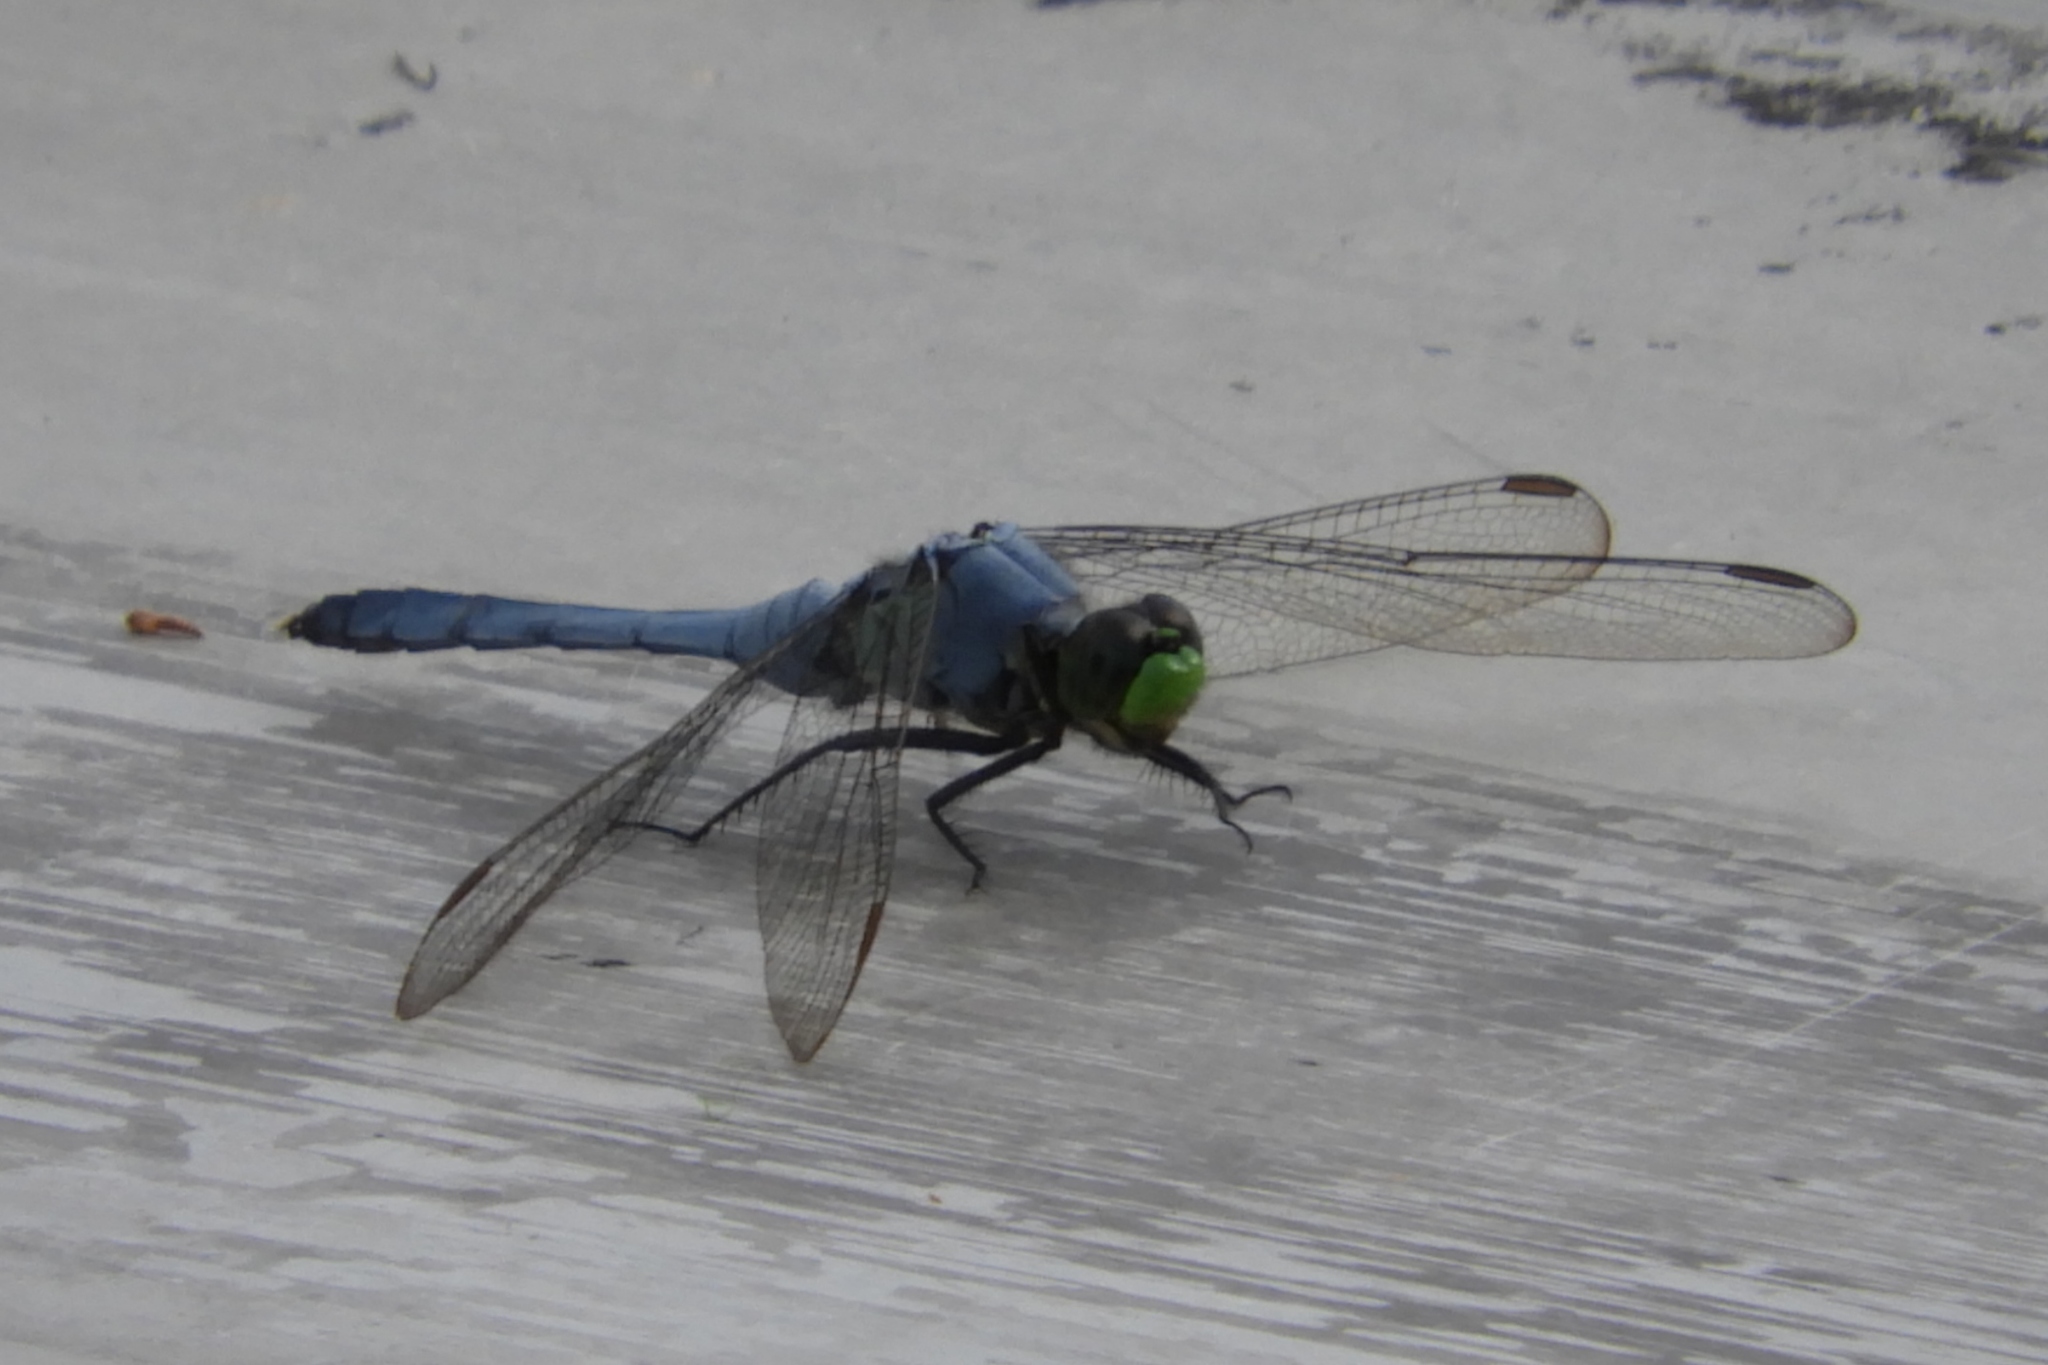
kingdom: Animalia
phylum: Arthropoda
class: Insecta
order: Odonata
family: Libellulidae
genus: Erythemis
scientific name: Erythemis simplicicollis
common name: Eastern pondhawk
